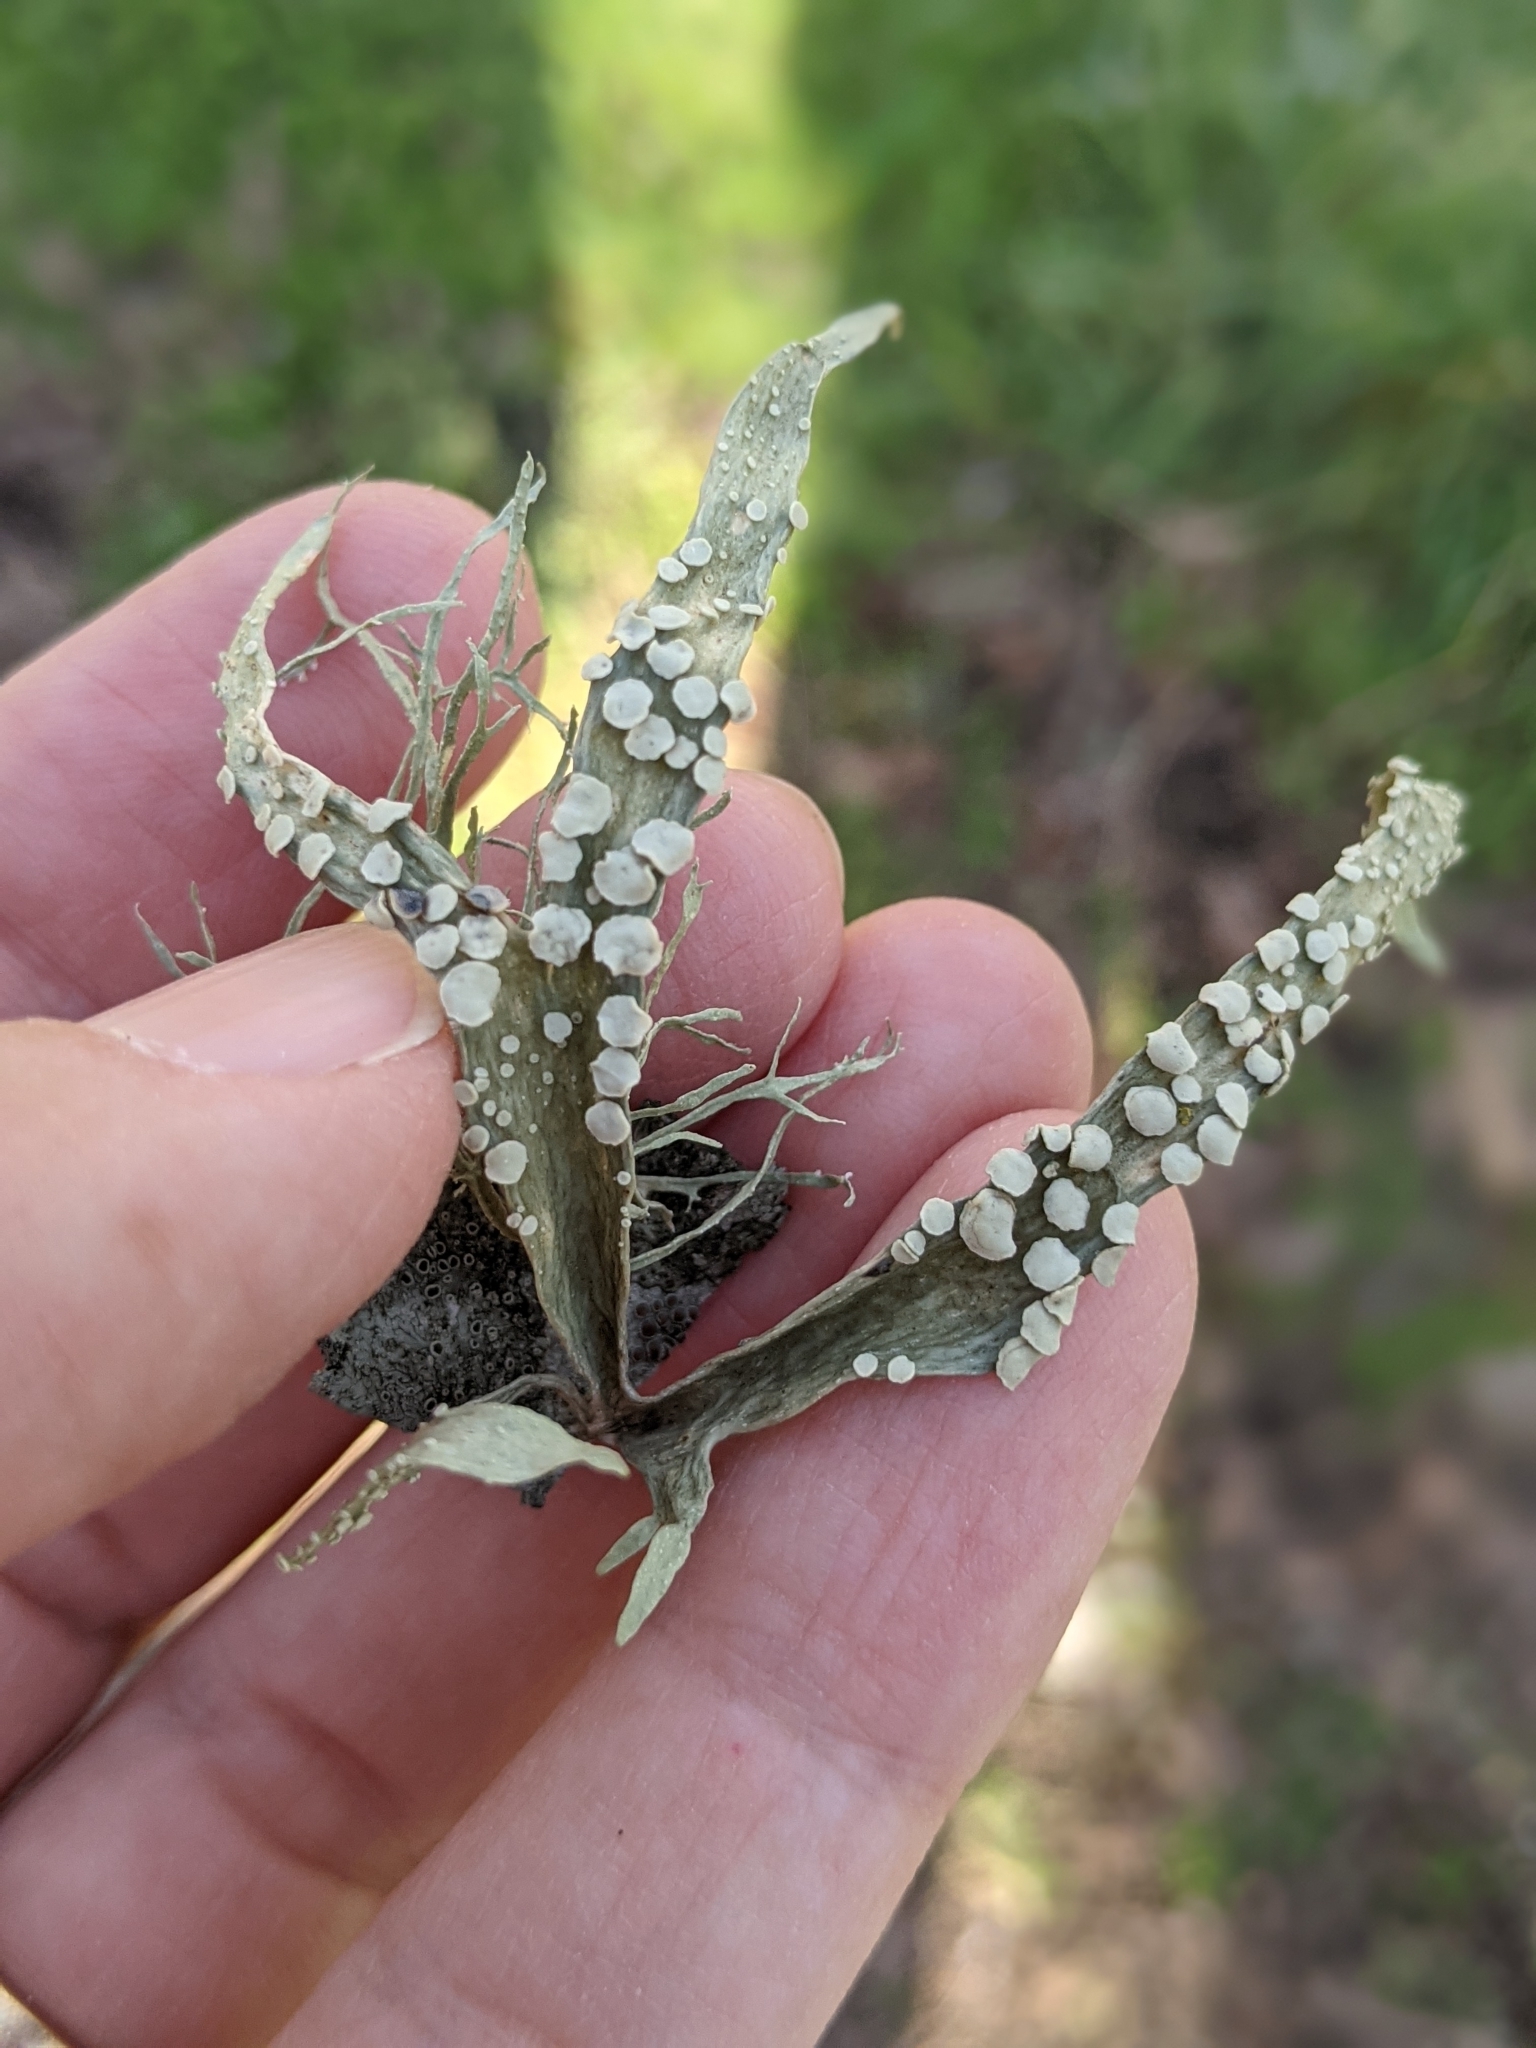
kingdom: Fungi
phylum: Ascomycota
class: Lecanoromycetes
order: Lecanorales
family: Ramalinaceae
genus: Ramalina
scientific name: Ramalina celastri
